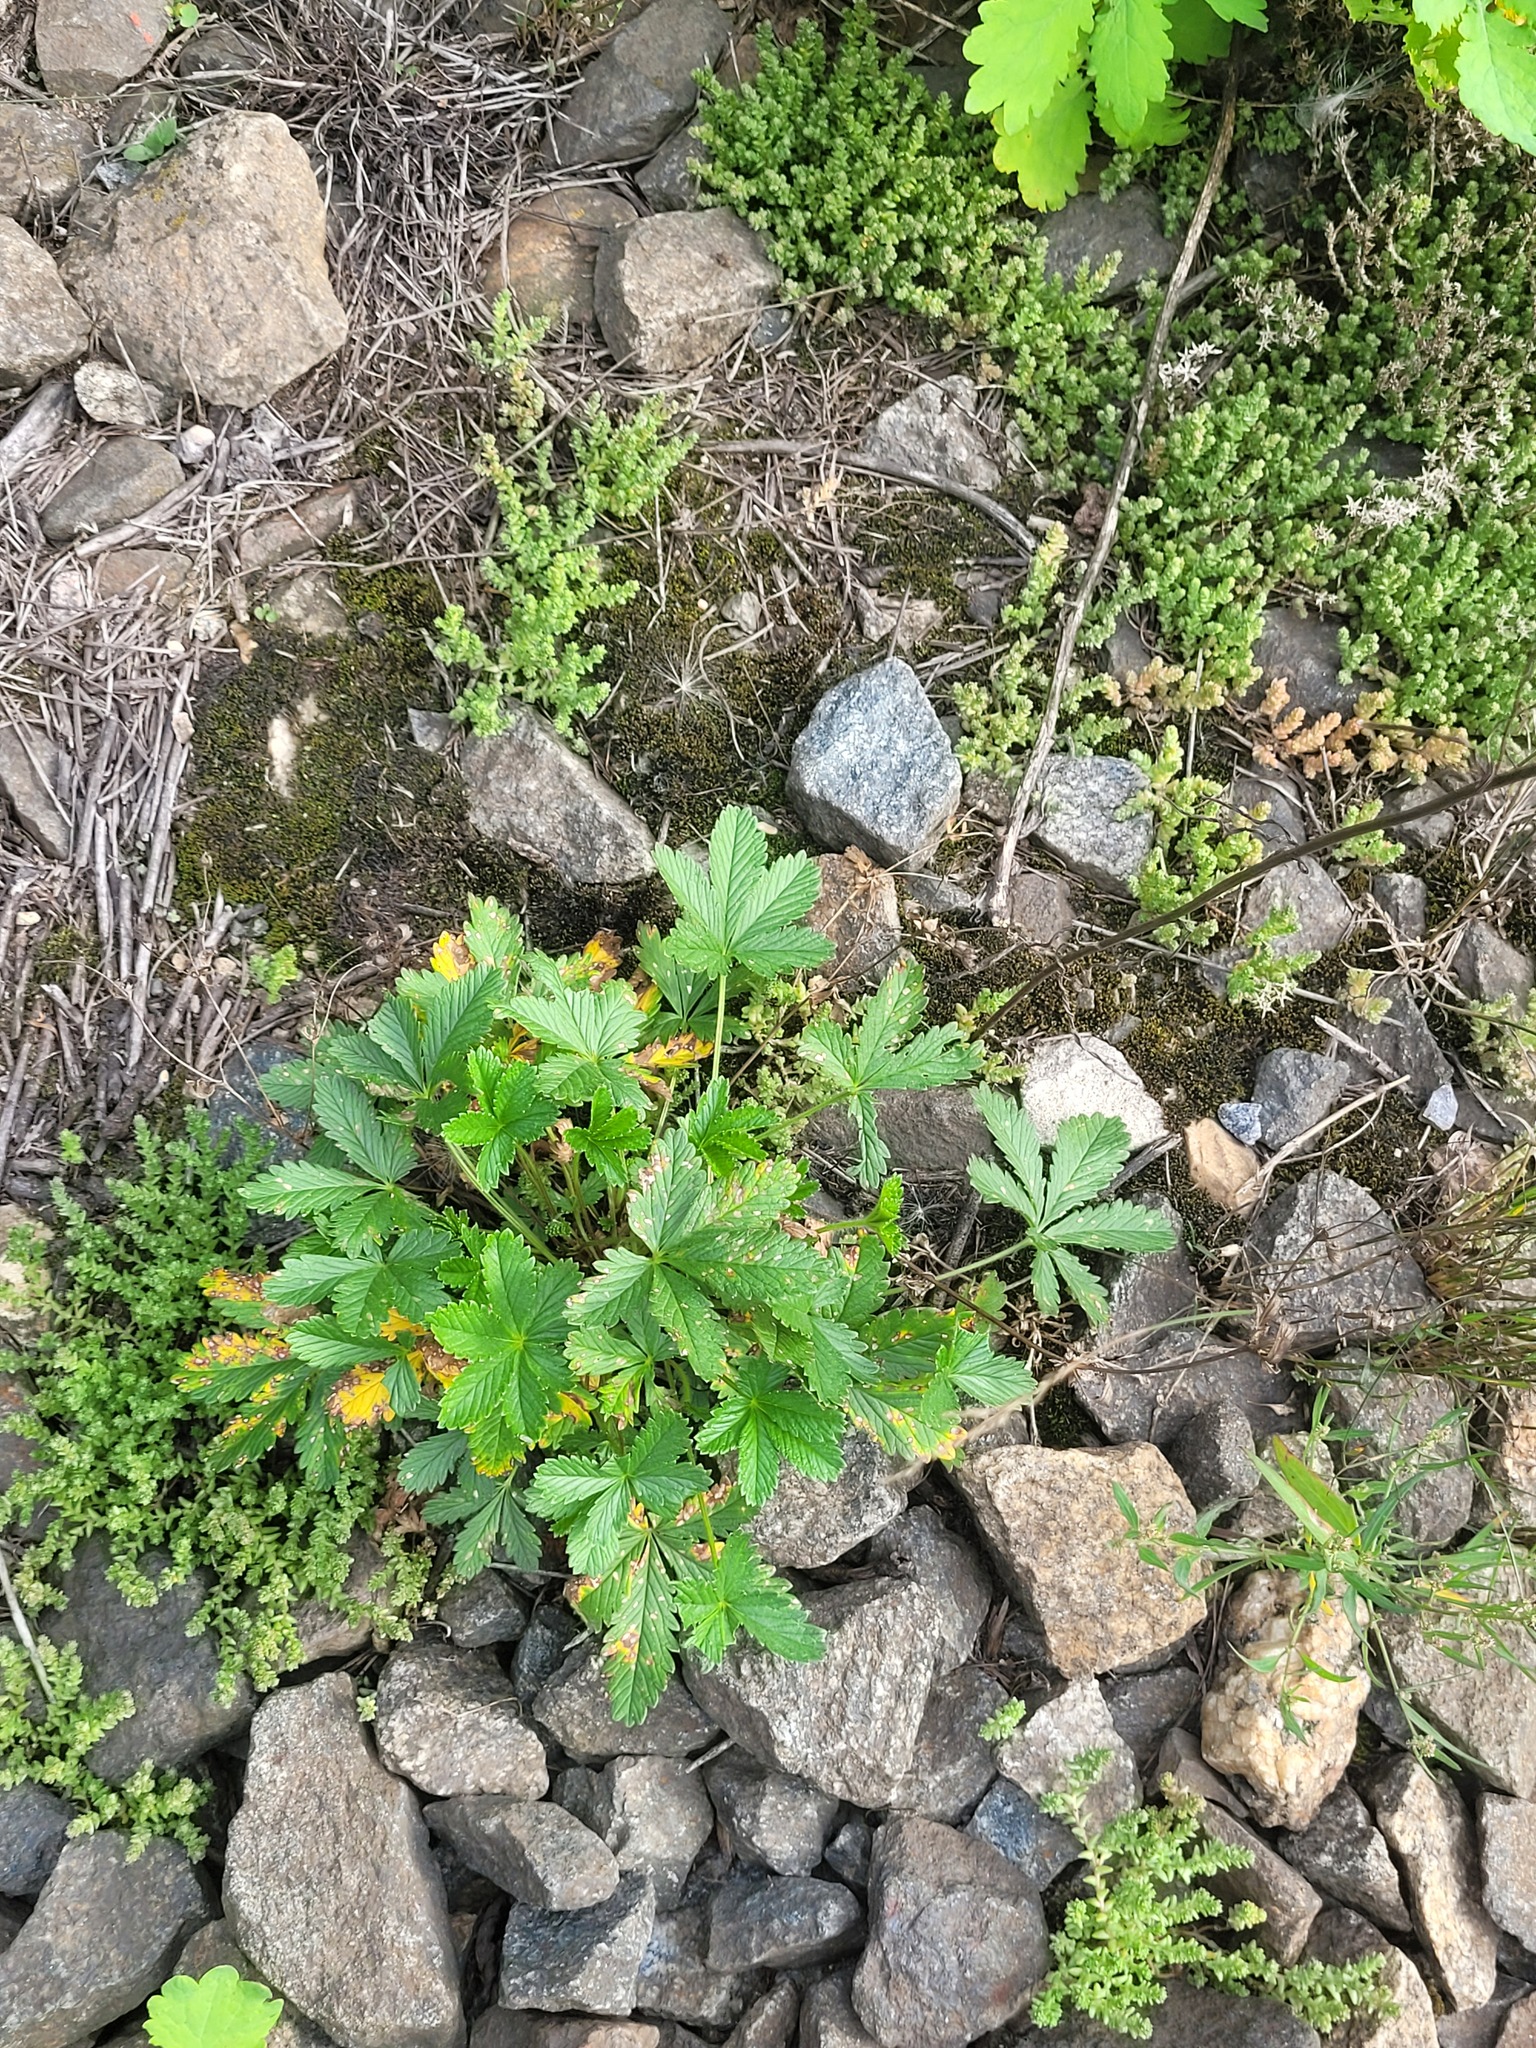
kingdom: Plantae
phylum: Tracheophyta
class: Magnoliopsida
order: Rosales
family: Rosaceae
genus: Potentilla
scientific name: Potentilla thuringiaca
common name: European cinquefoil
